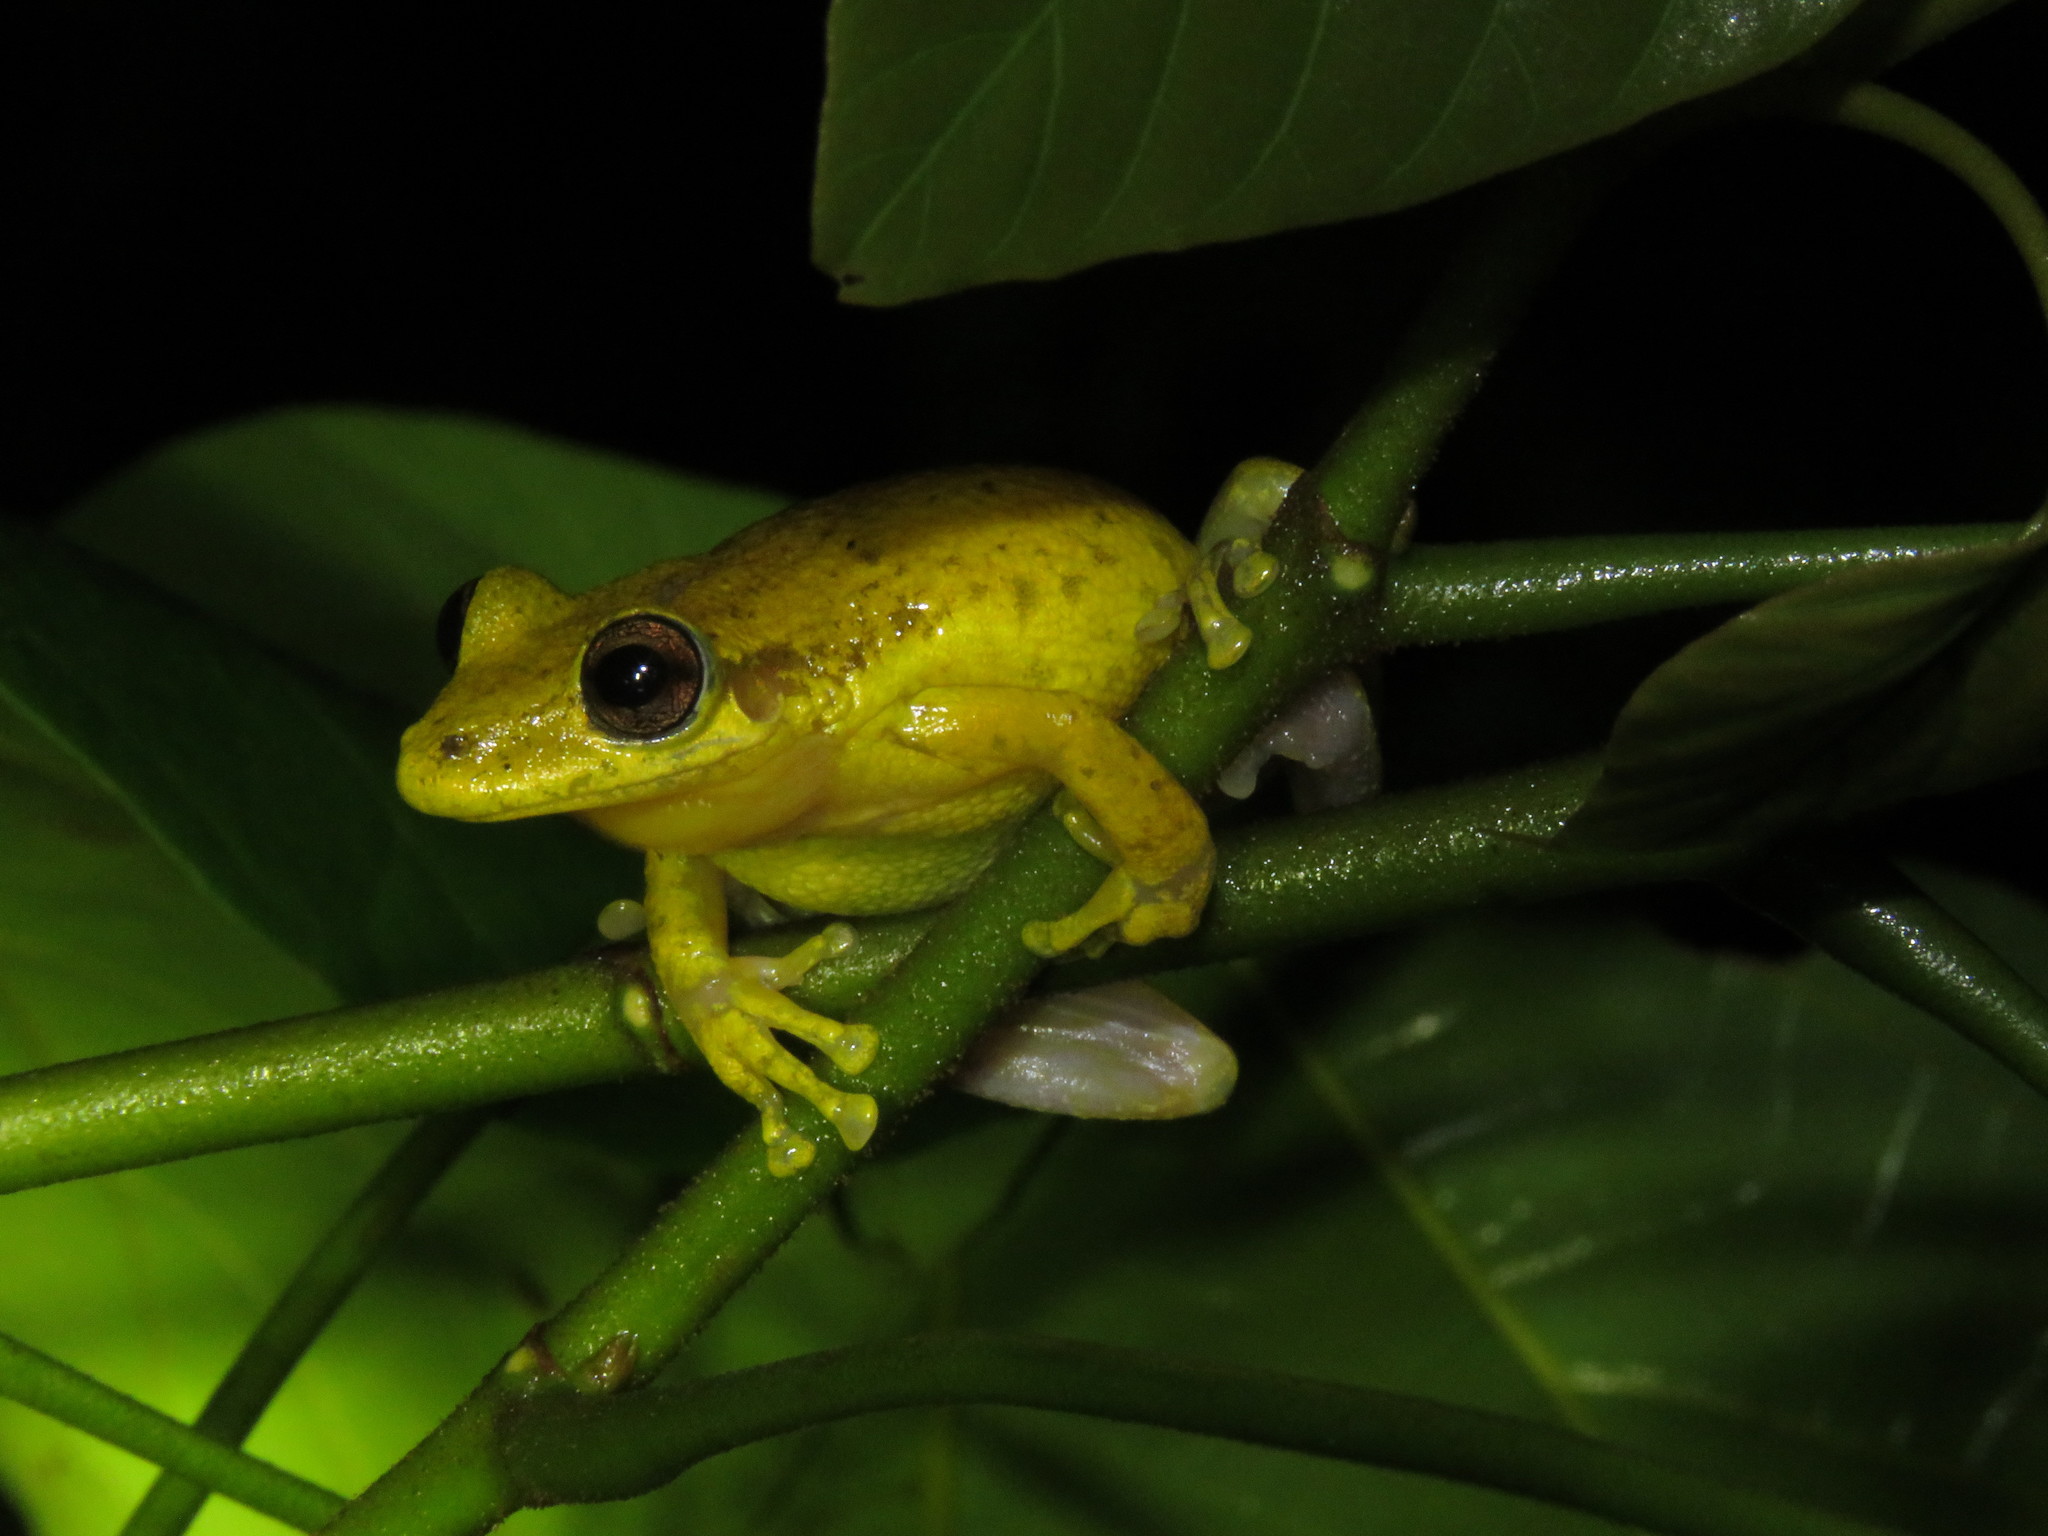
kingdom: Animalia
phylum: Chordata
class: Amphibia
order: Anura
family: Hylidae
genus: Scinax
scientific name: Scinax ruber
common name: Red snouted treefrog
